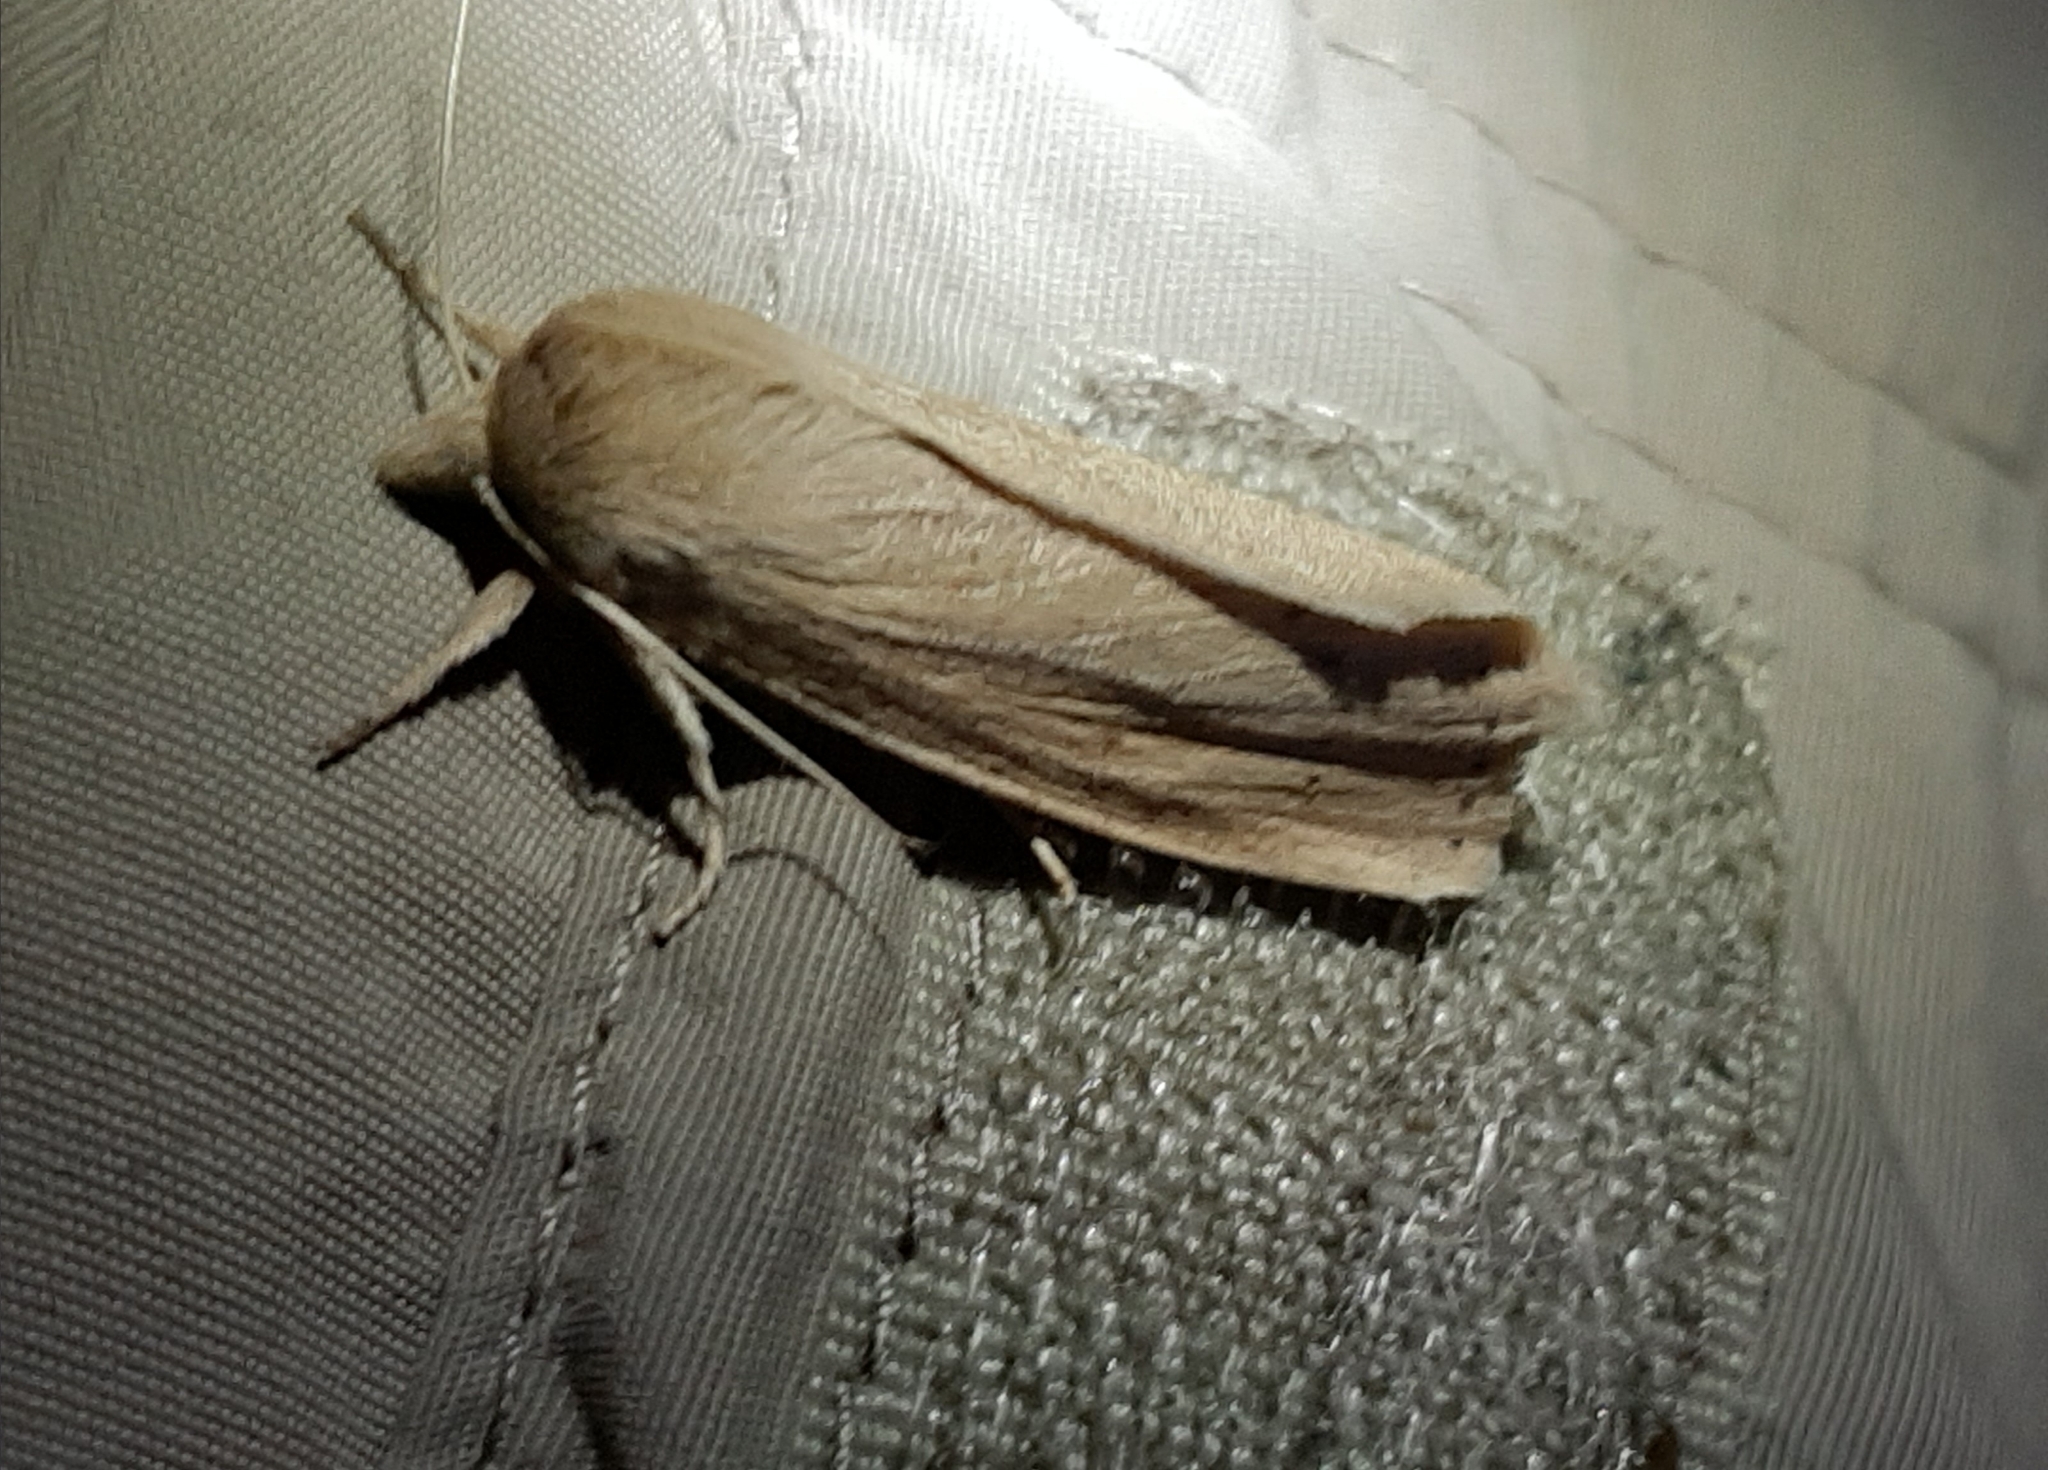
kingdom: Animalia
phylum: Arthropoda
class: Insecta
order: Lepidoptera
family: Noctuidae
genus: Globia
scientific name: Globia oblonga
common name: Oblong sedge borer moth
